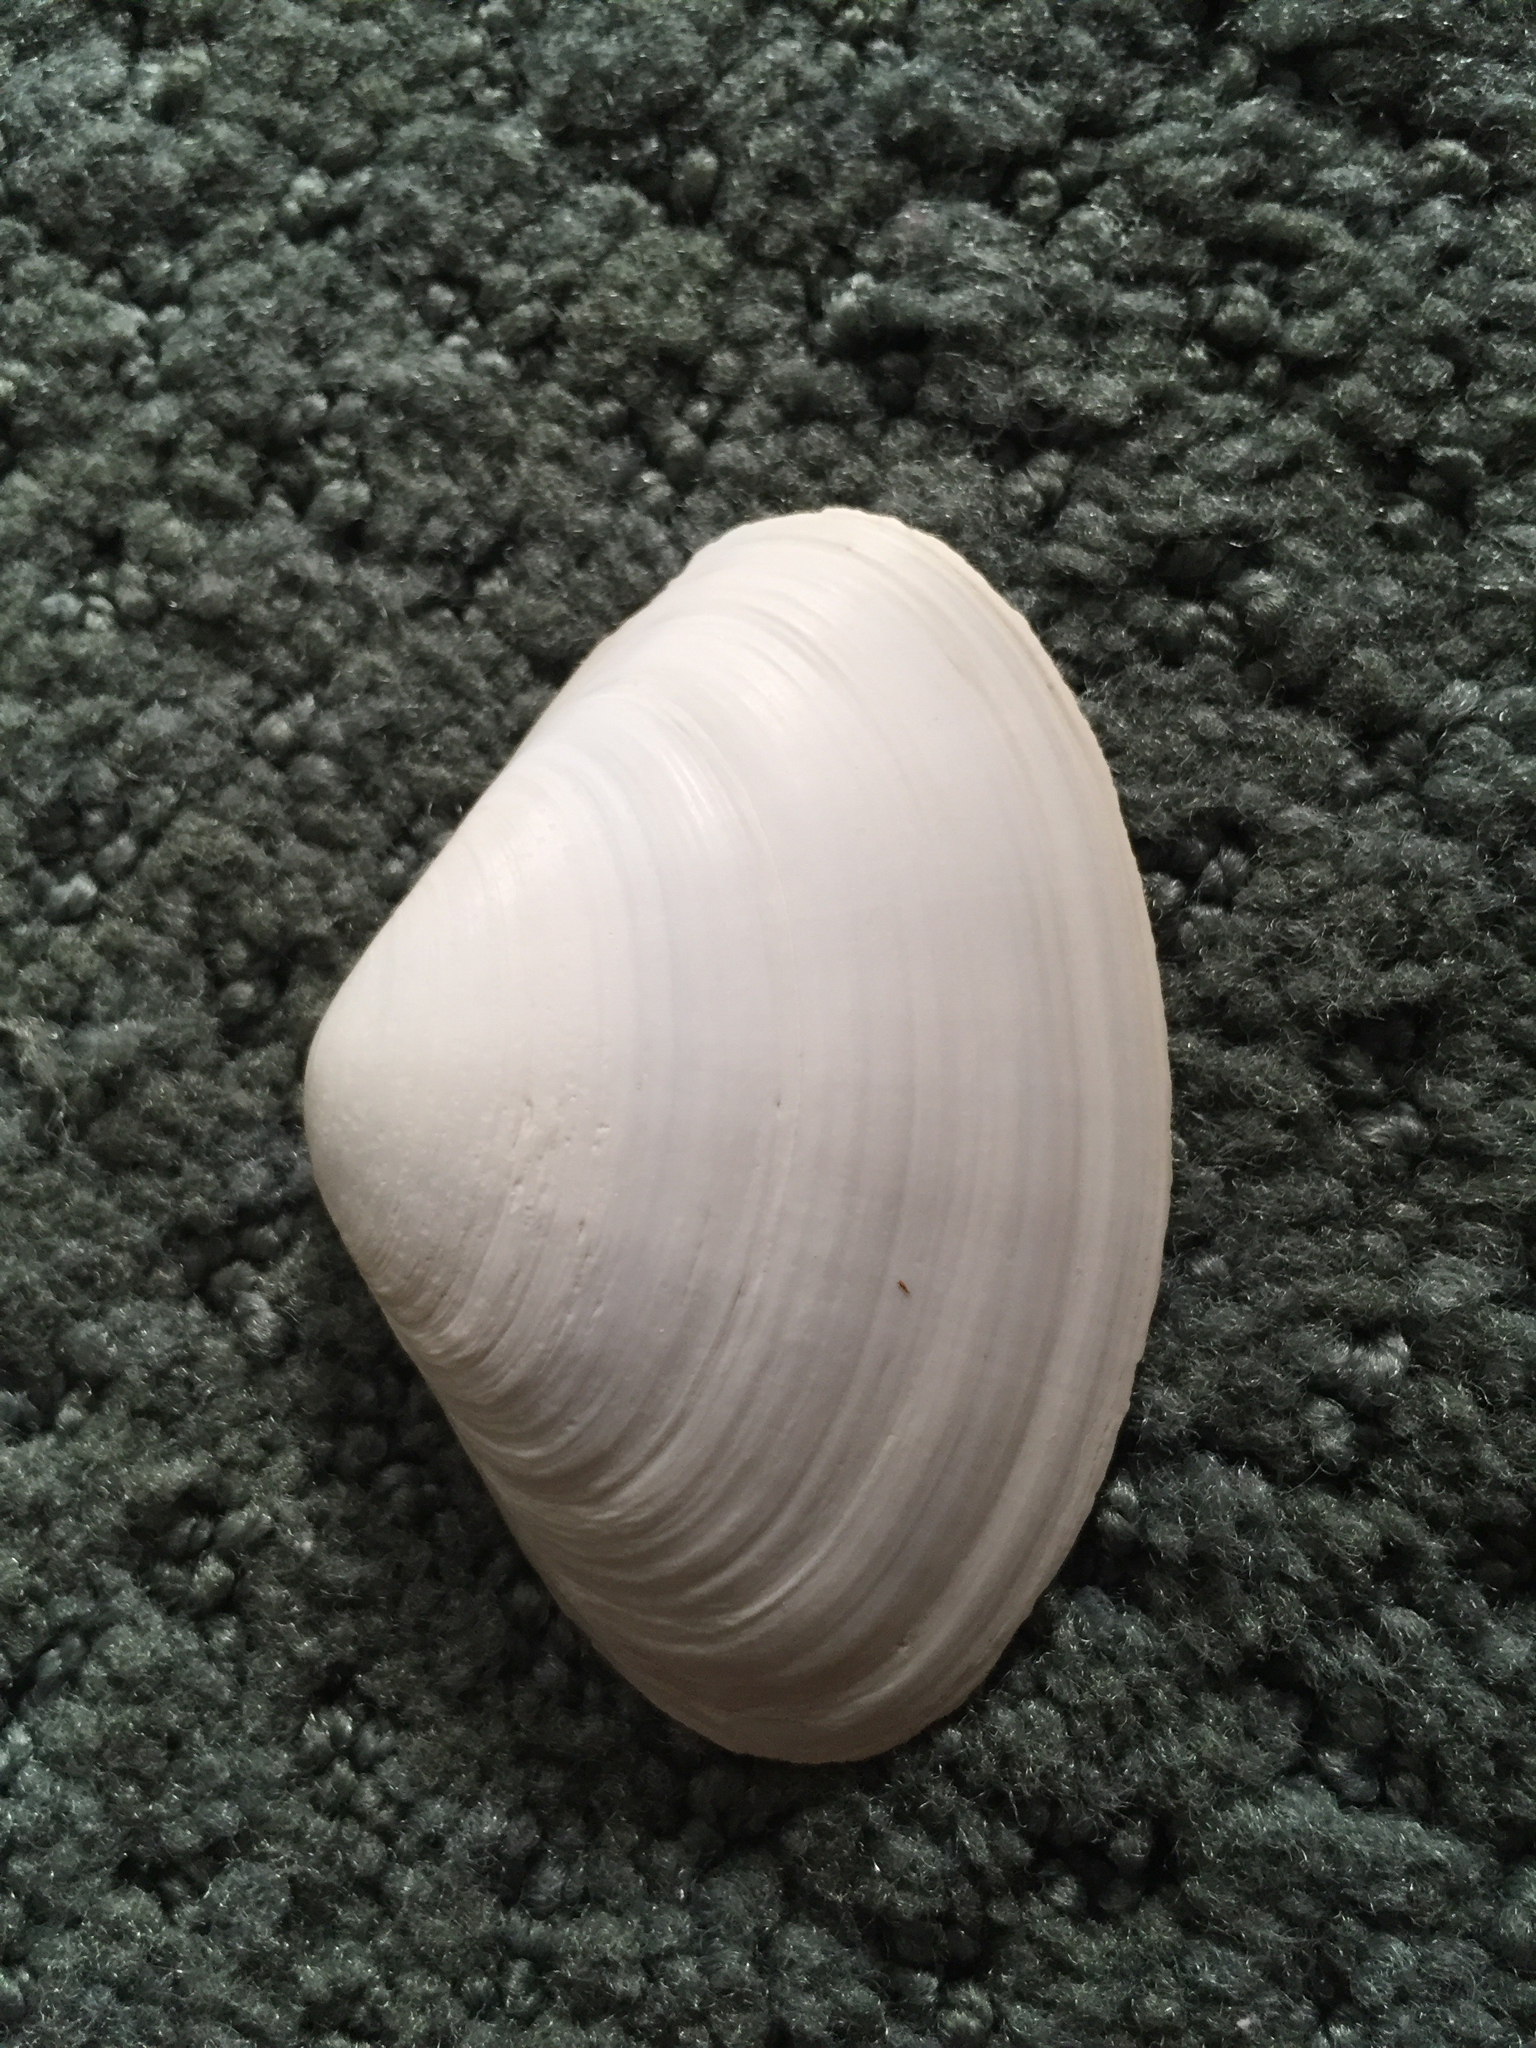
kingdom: Animalia
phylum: Mollusca
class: Bivalvia
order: Venerida
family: Mactridae
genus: Spisula
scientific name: Spisula raveneli
